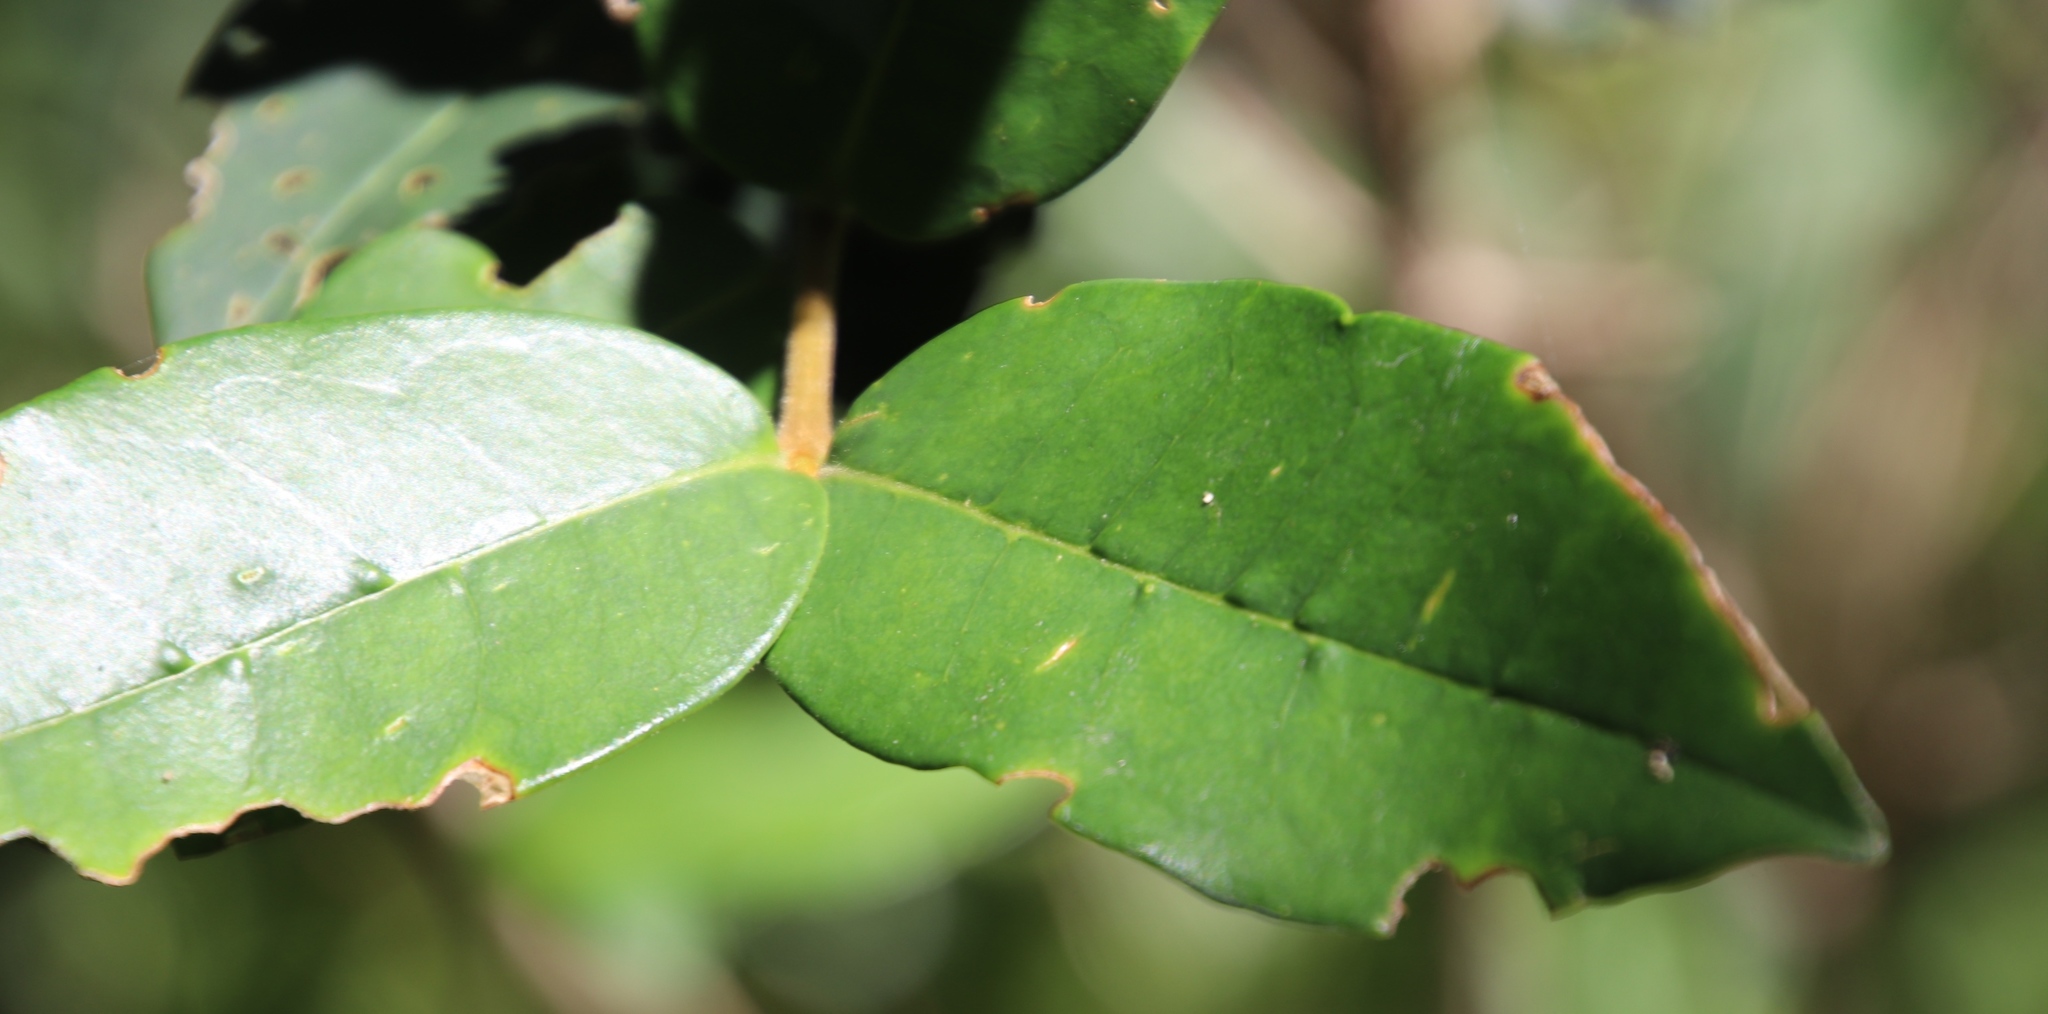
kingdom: Plantae
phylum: Tracheophyta
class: Magnoliopsida
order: Lamiales
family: Oleaceae
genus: Noronhia
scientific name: Noronhia foveolata
